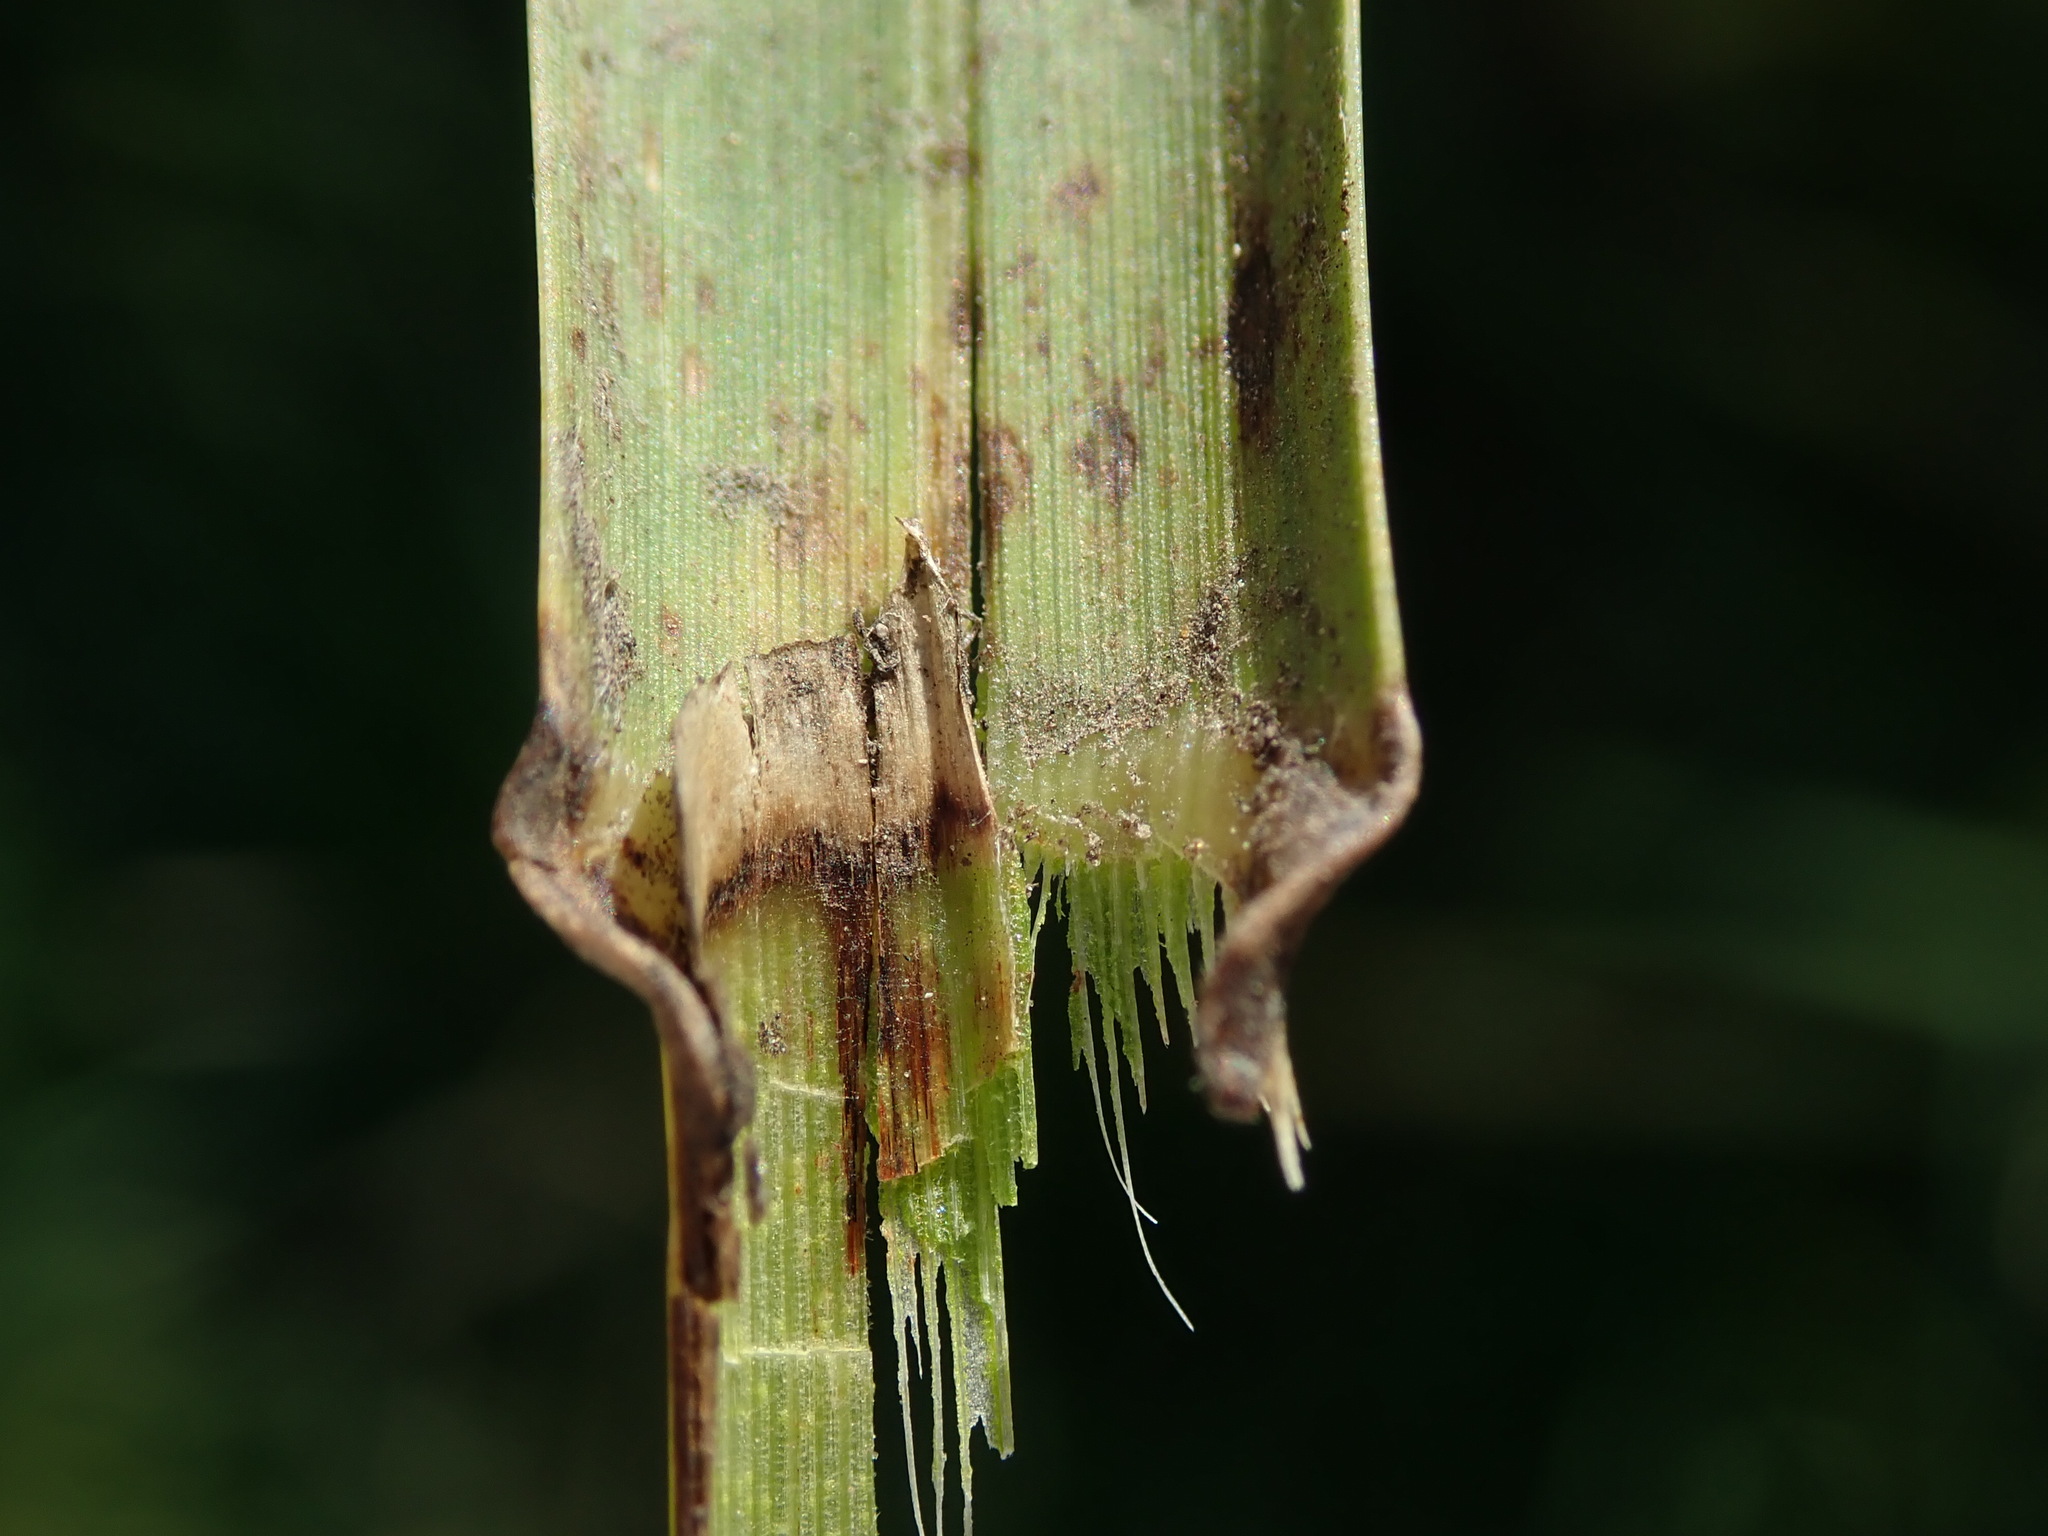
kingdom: Plantae
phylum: Tracheophyta
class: Liliopsida
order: Poales
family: Poaceae
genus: Glyceria
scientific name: Glyceria maxima
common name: Reed mannagrass
